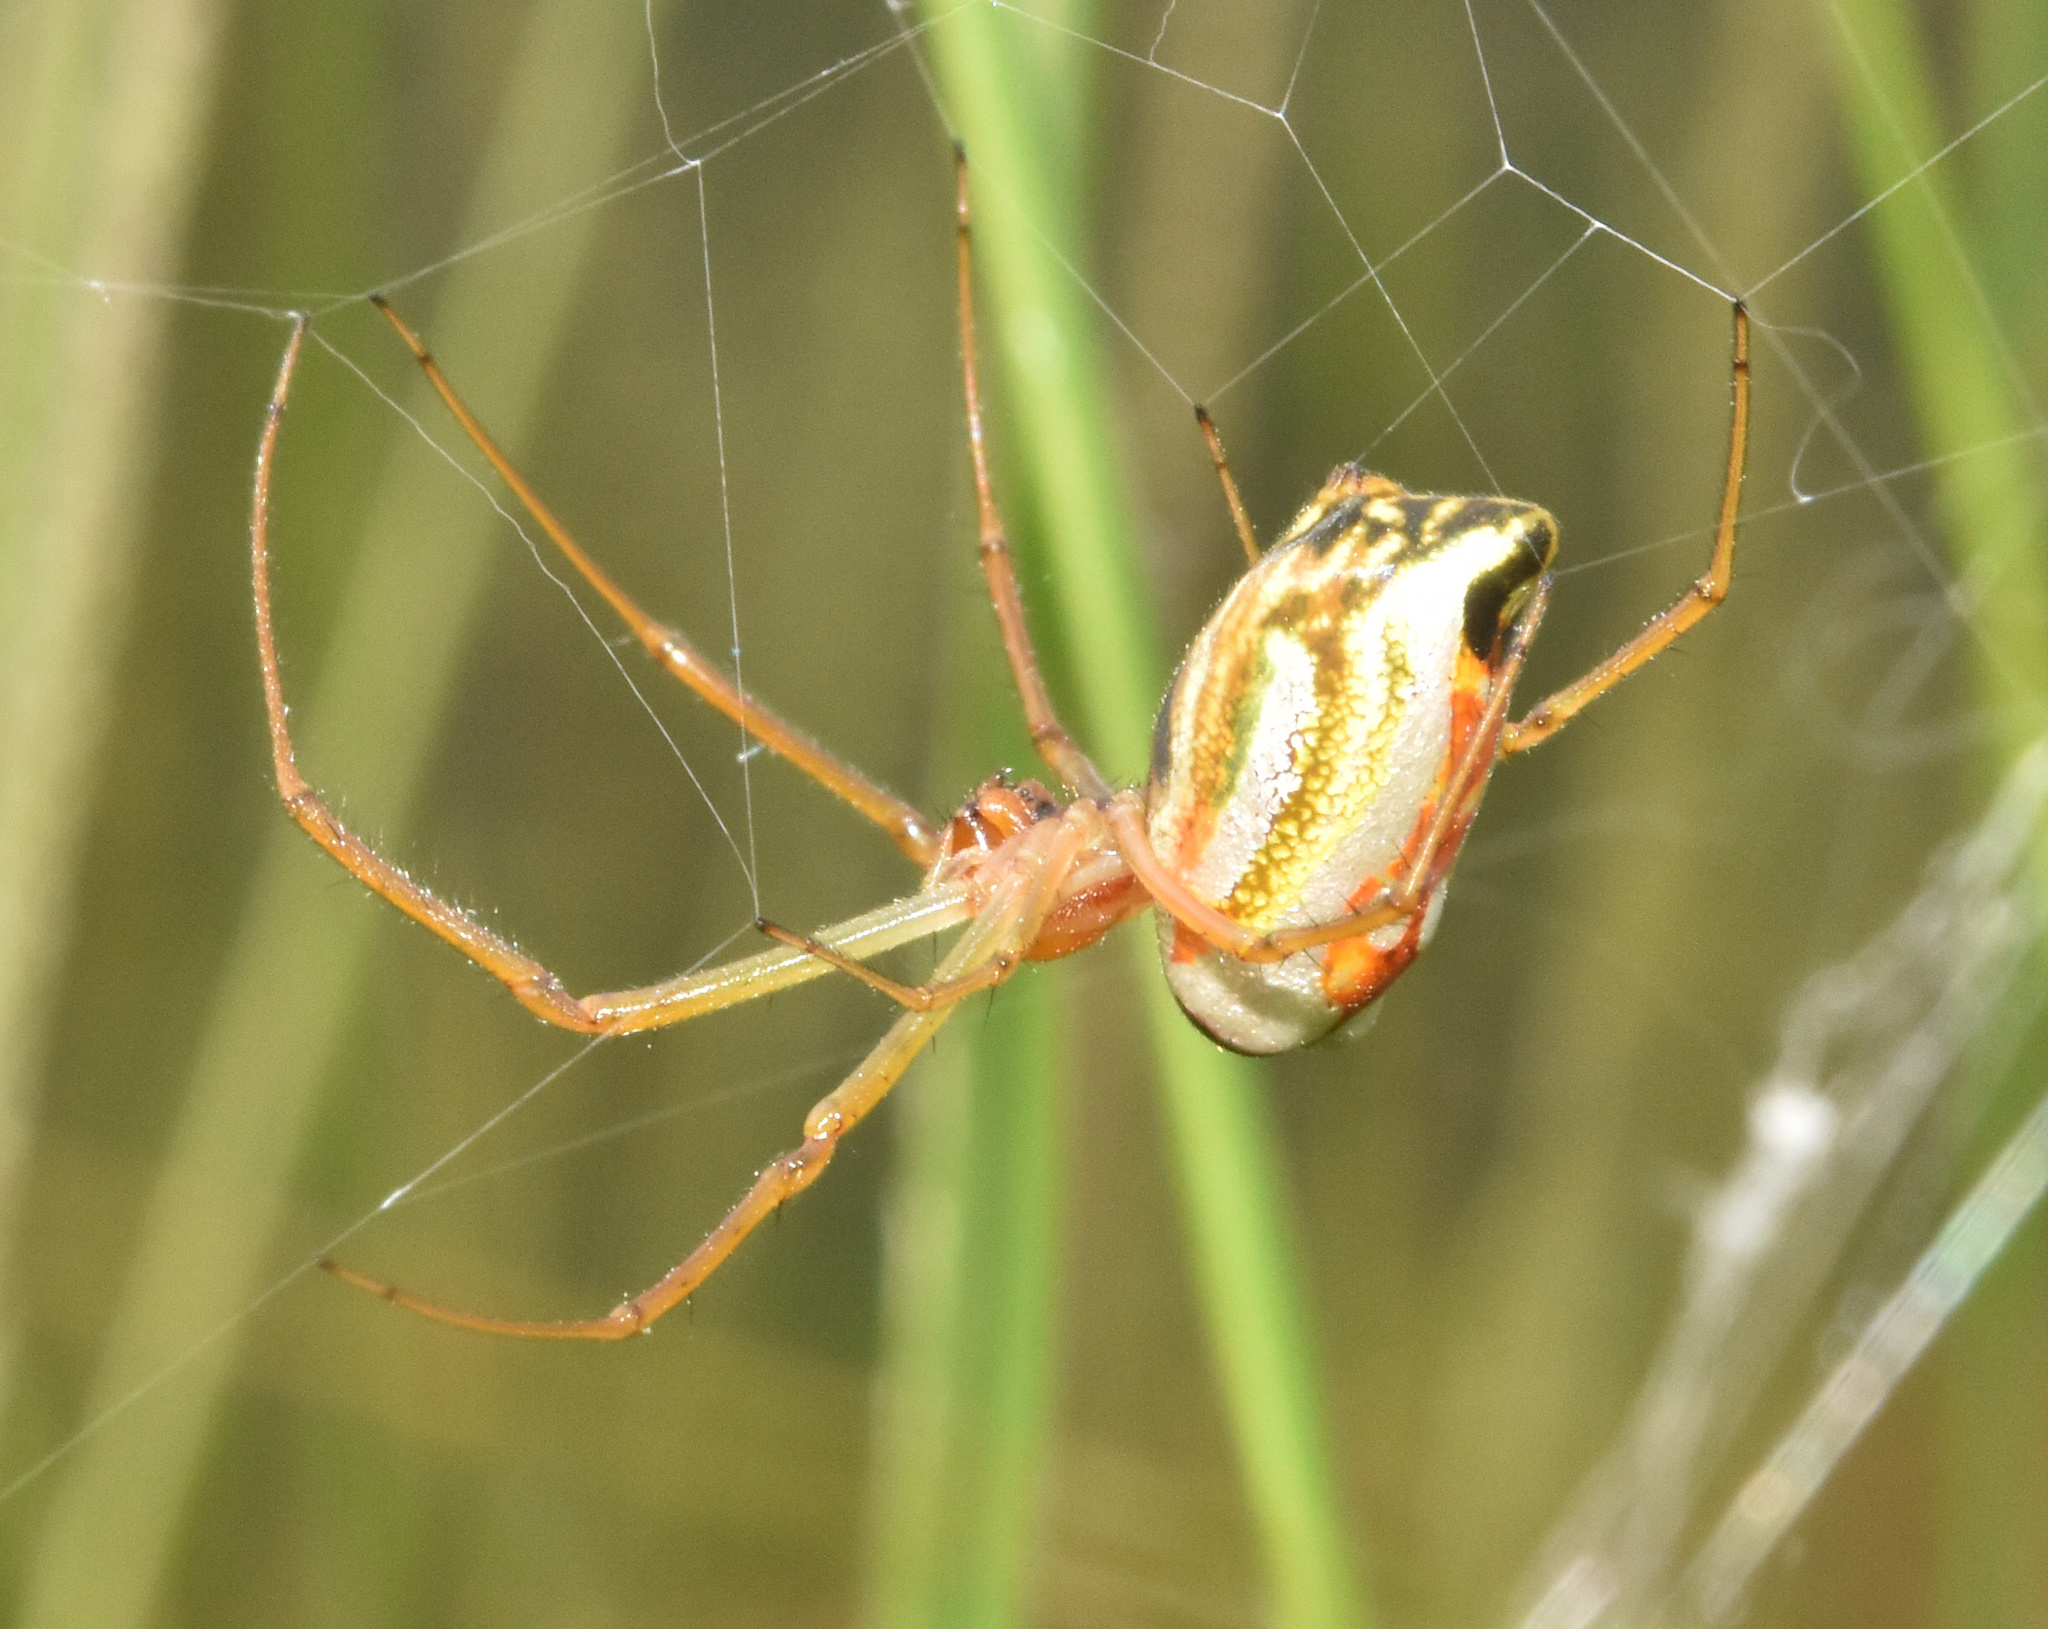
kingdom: Animalia
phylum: Arthropoda
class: Arachnida
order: Araneae
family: Tetragnathidae
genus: Leucauge
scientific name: Leucauge festiva
